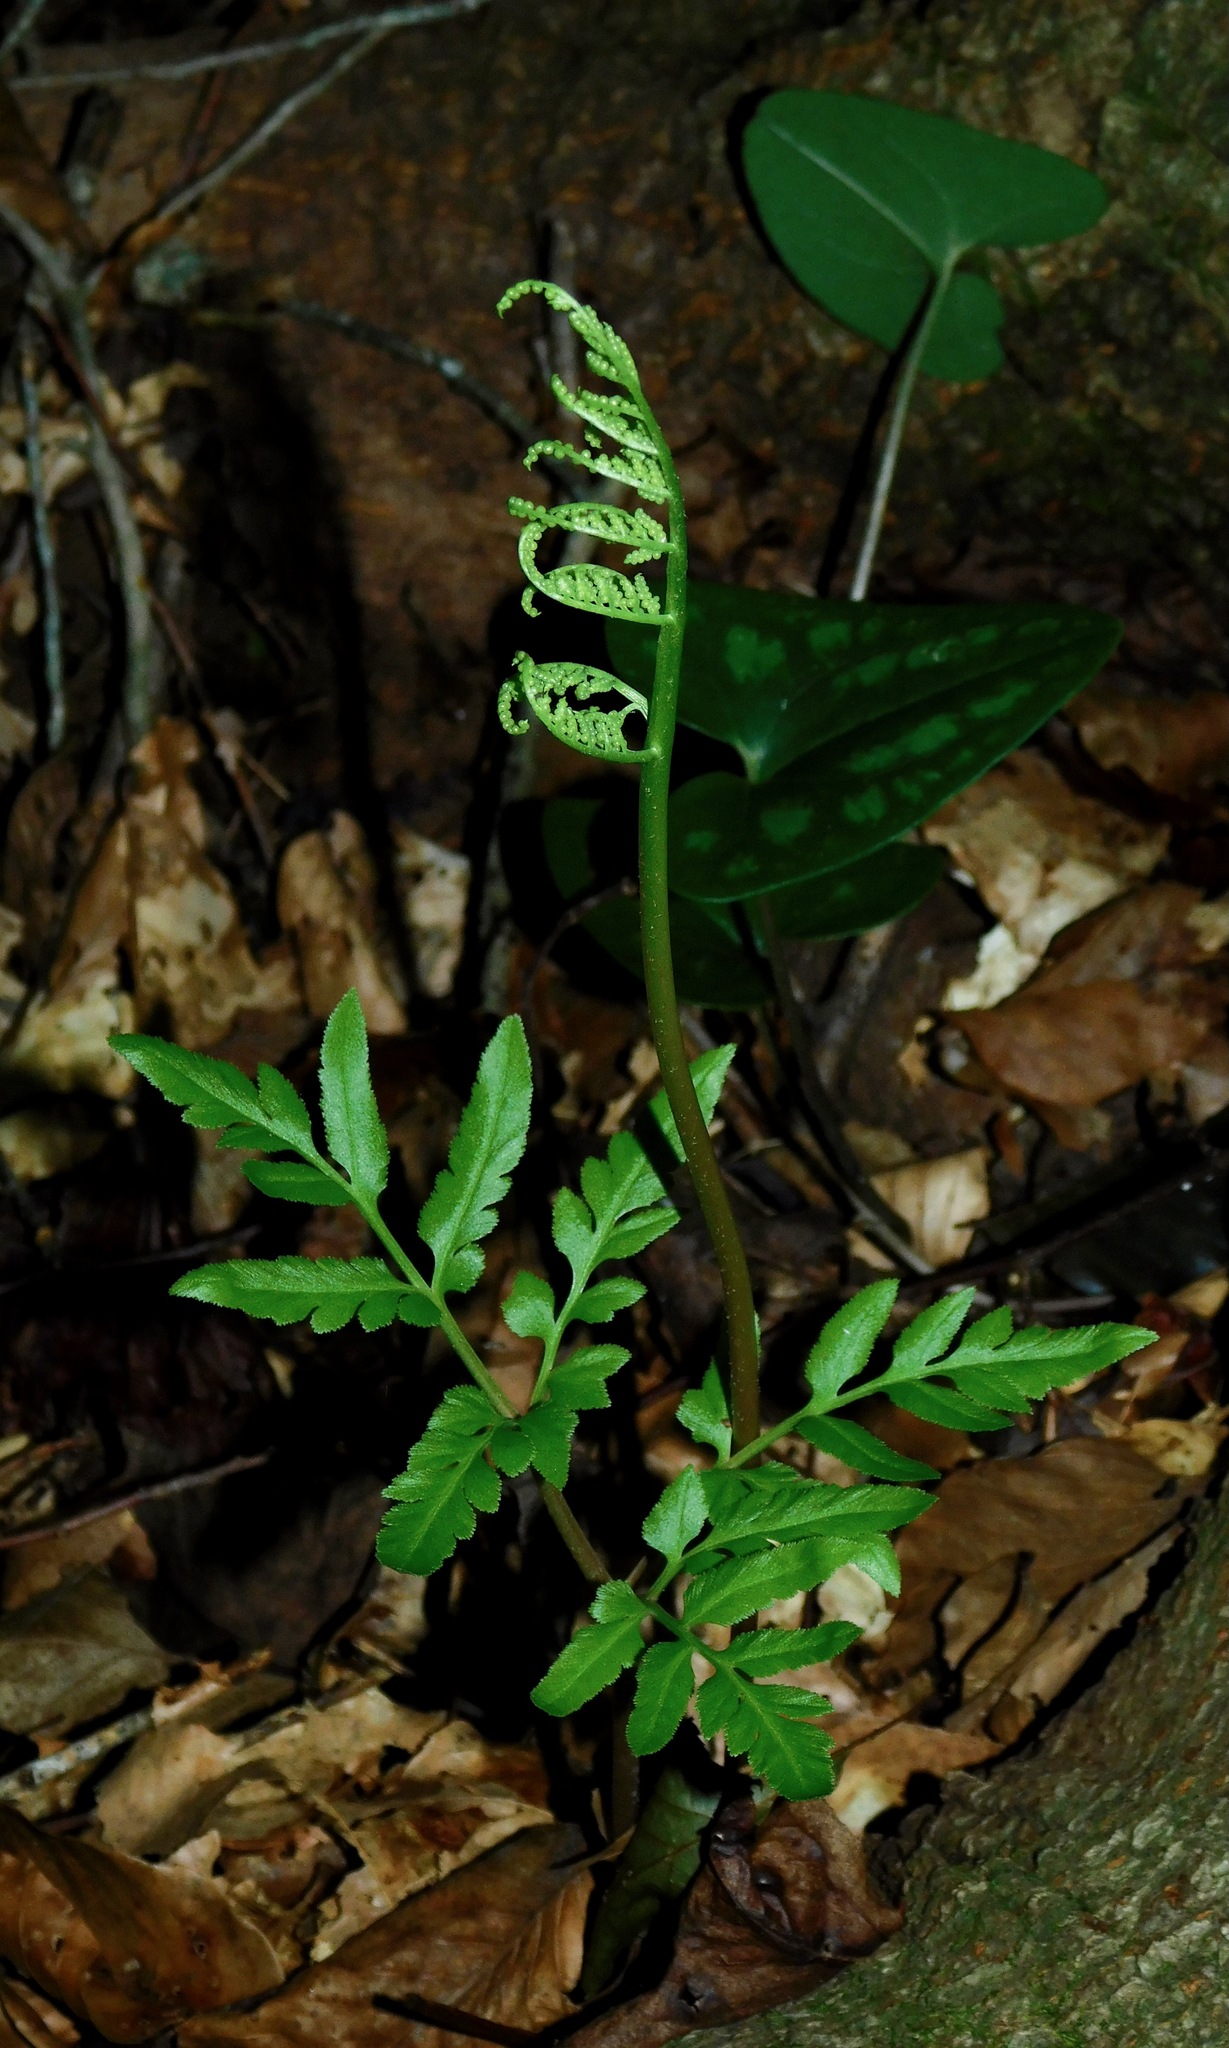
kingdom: Plantae
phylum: Tracheophyta
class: Polypodiopsida
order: Ophioglossales
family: Ophioglossaceae
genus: Sceptridium
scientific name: Sceptridium dissectum
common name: Cut-leaved grapefern
